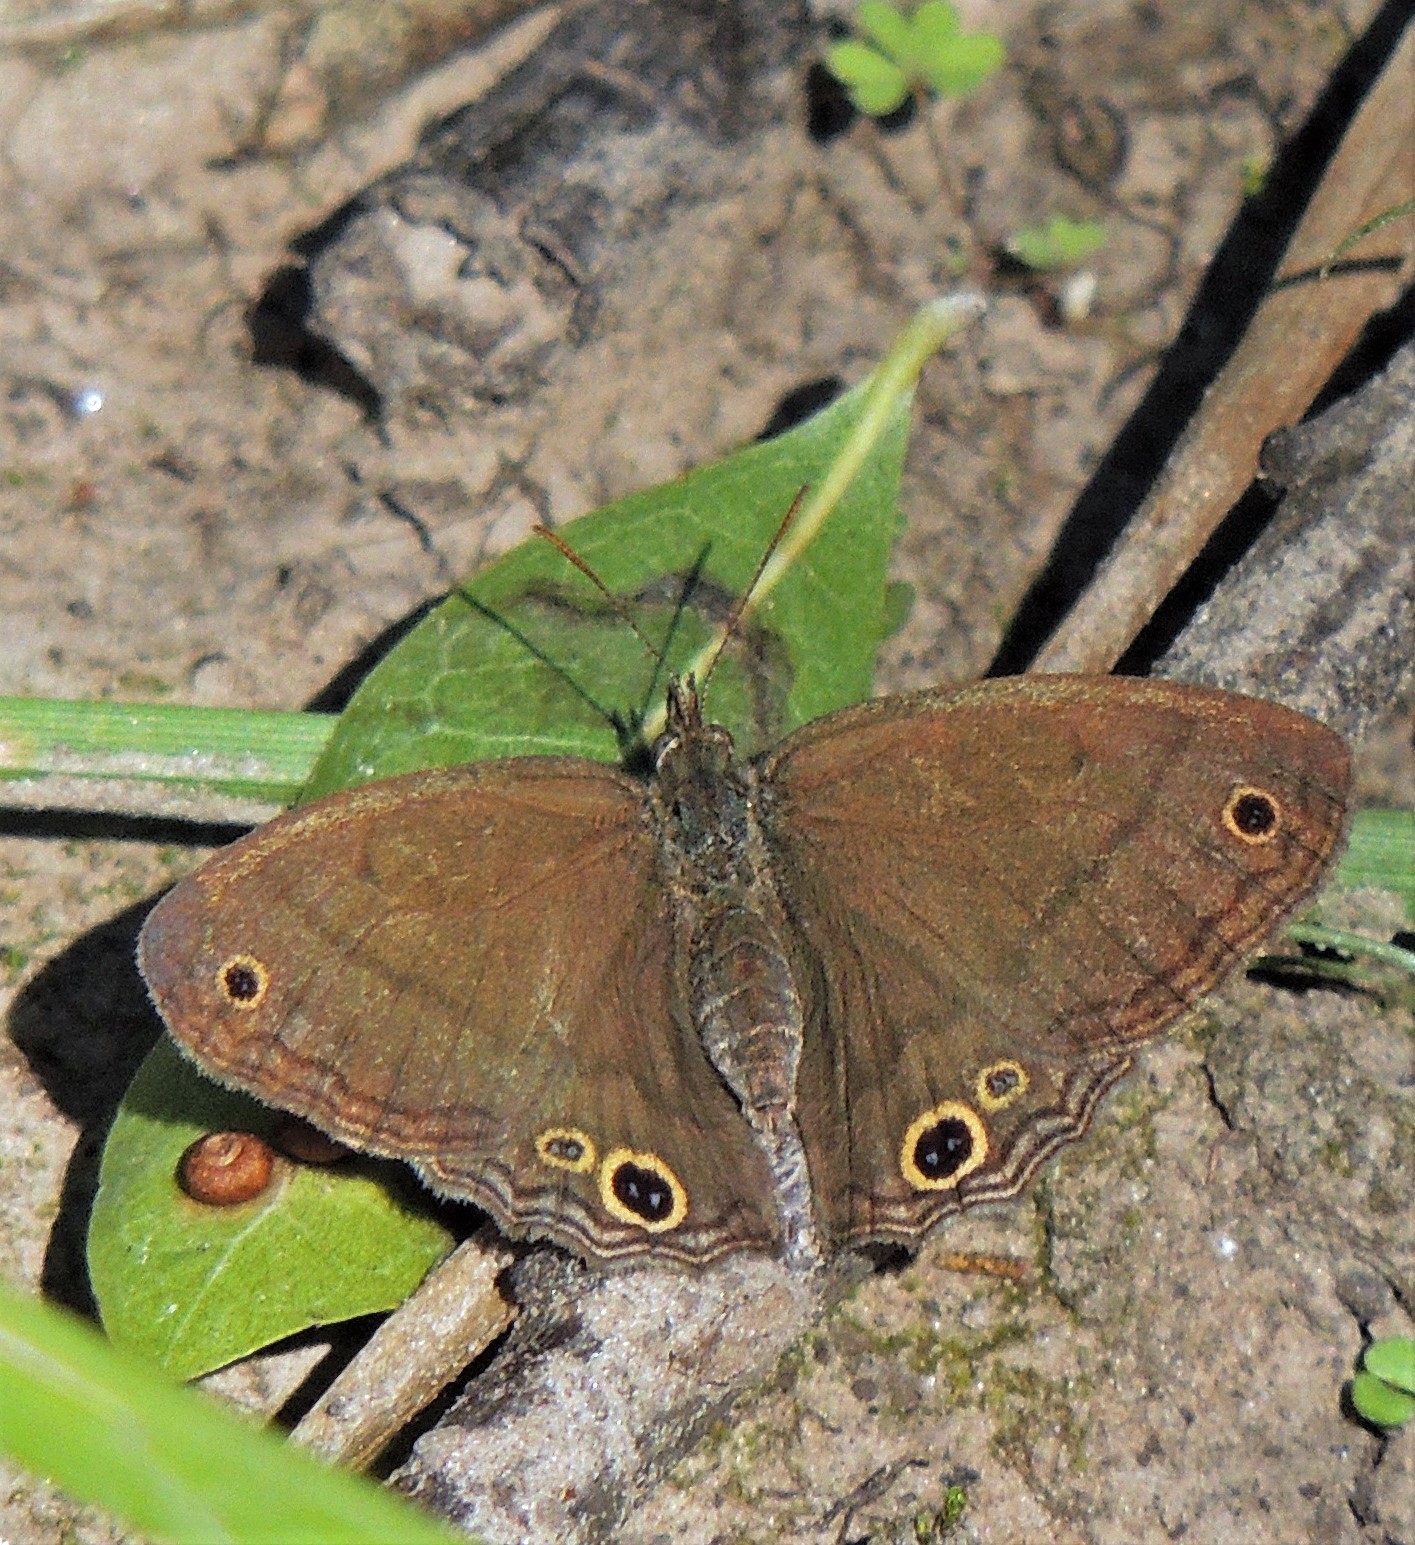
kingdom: Animalia
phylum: Arthropoda
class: Insecta
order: Lepidoptera
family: Nymphalidae
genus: Pharneuptychia
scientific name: Pharneuptychia phares
